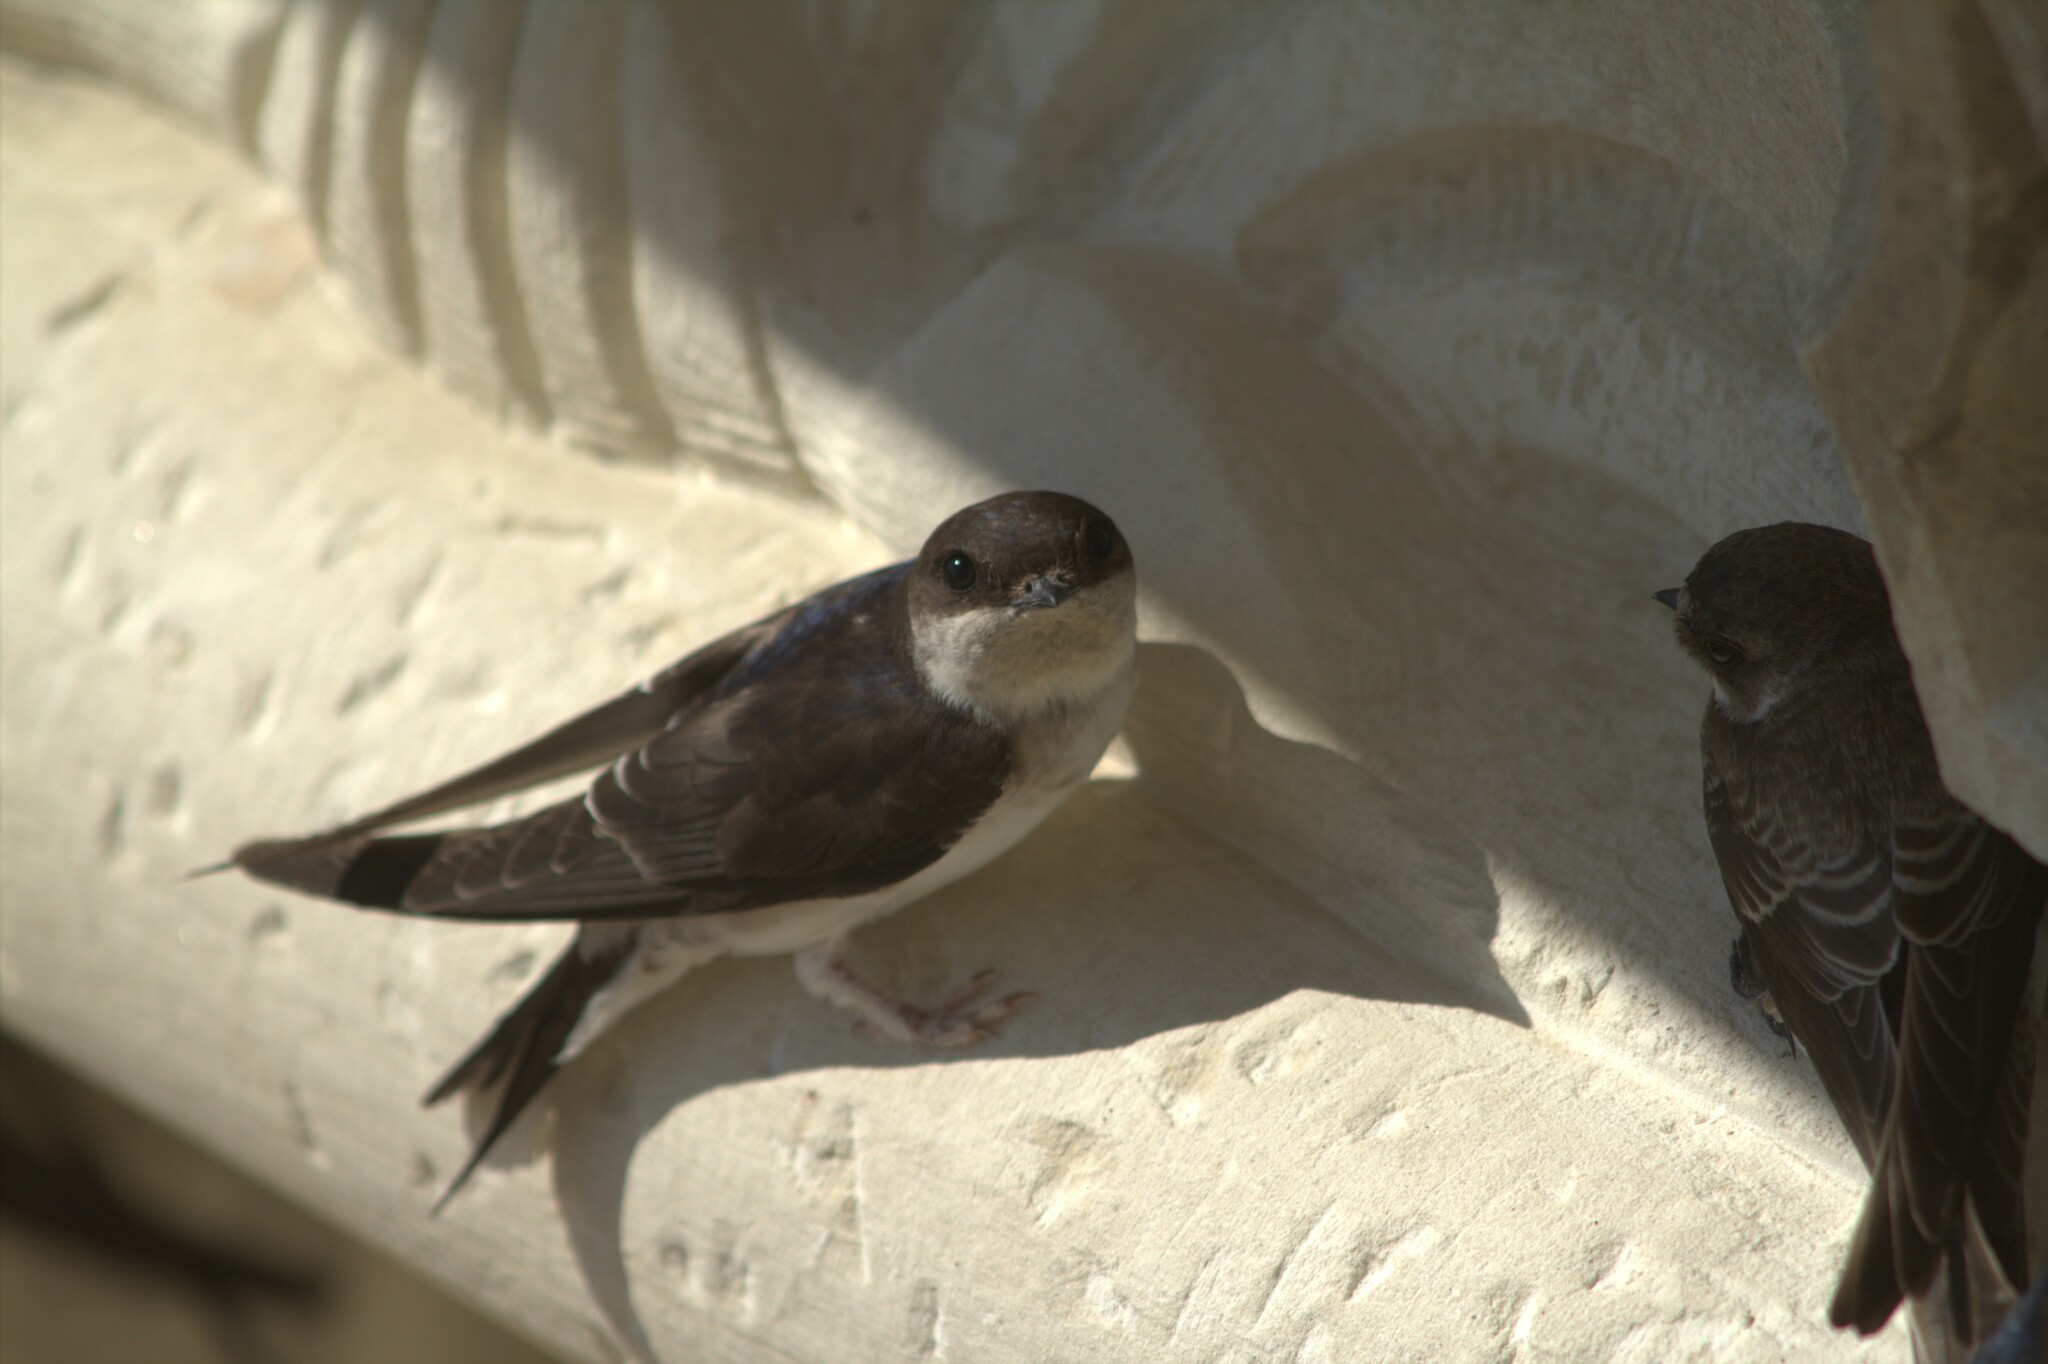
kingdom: Animalia
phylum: Chordata
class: Aves
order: Passeriformes
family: Hirundinidae
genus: Delichon
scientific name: Delichon urbicum
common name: Common house martin
